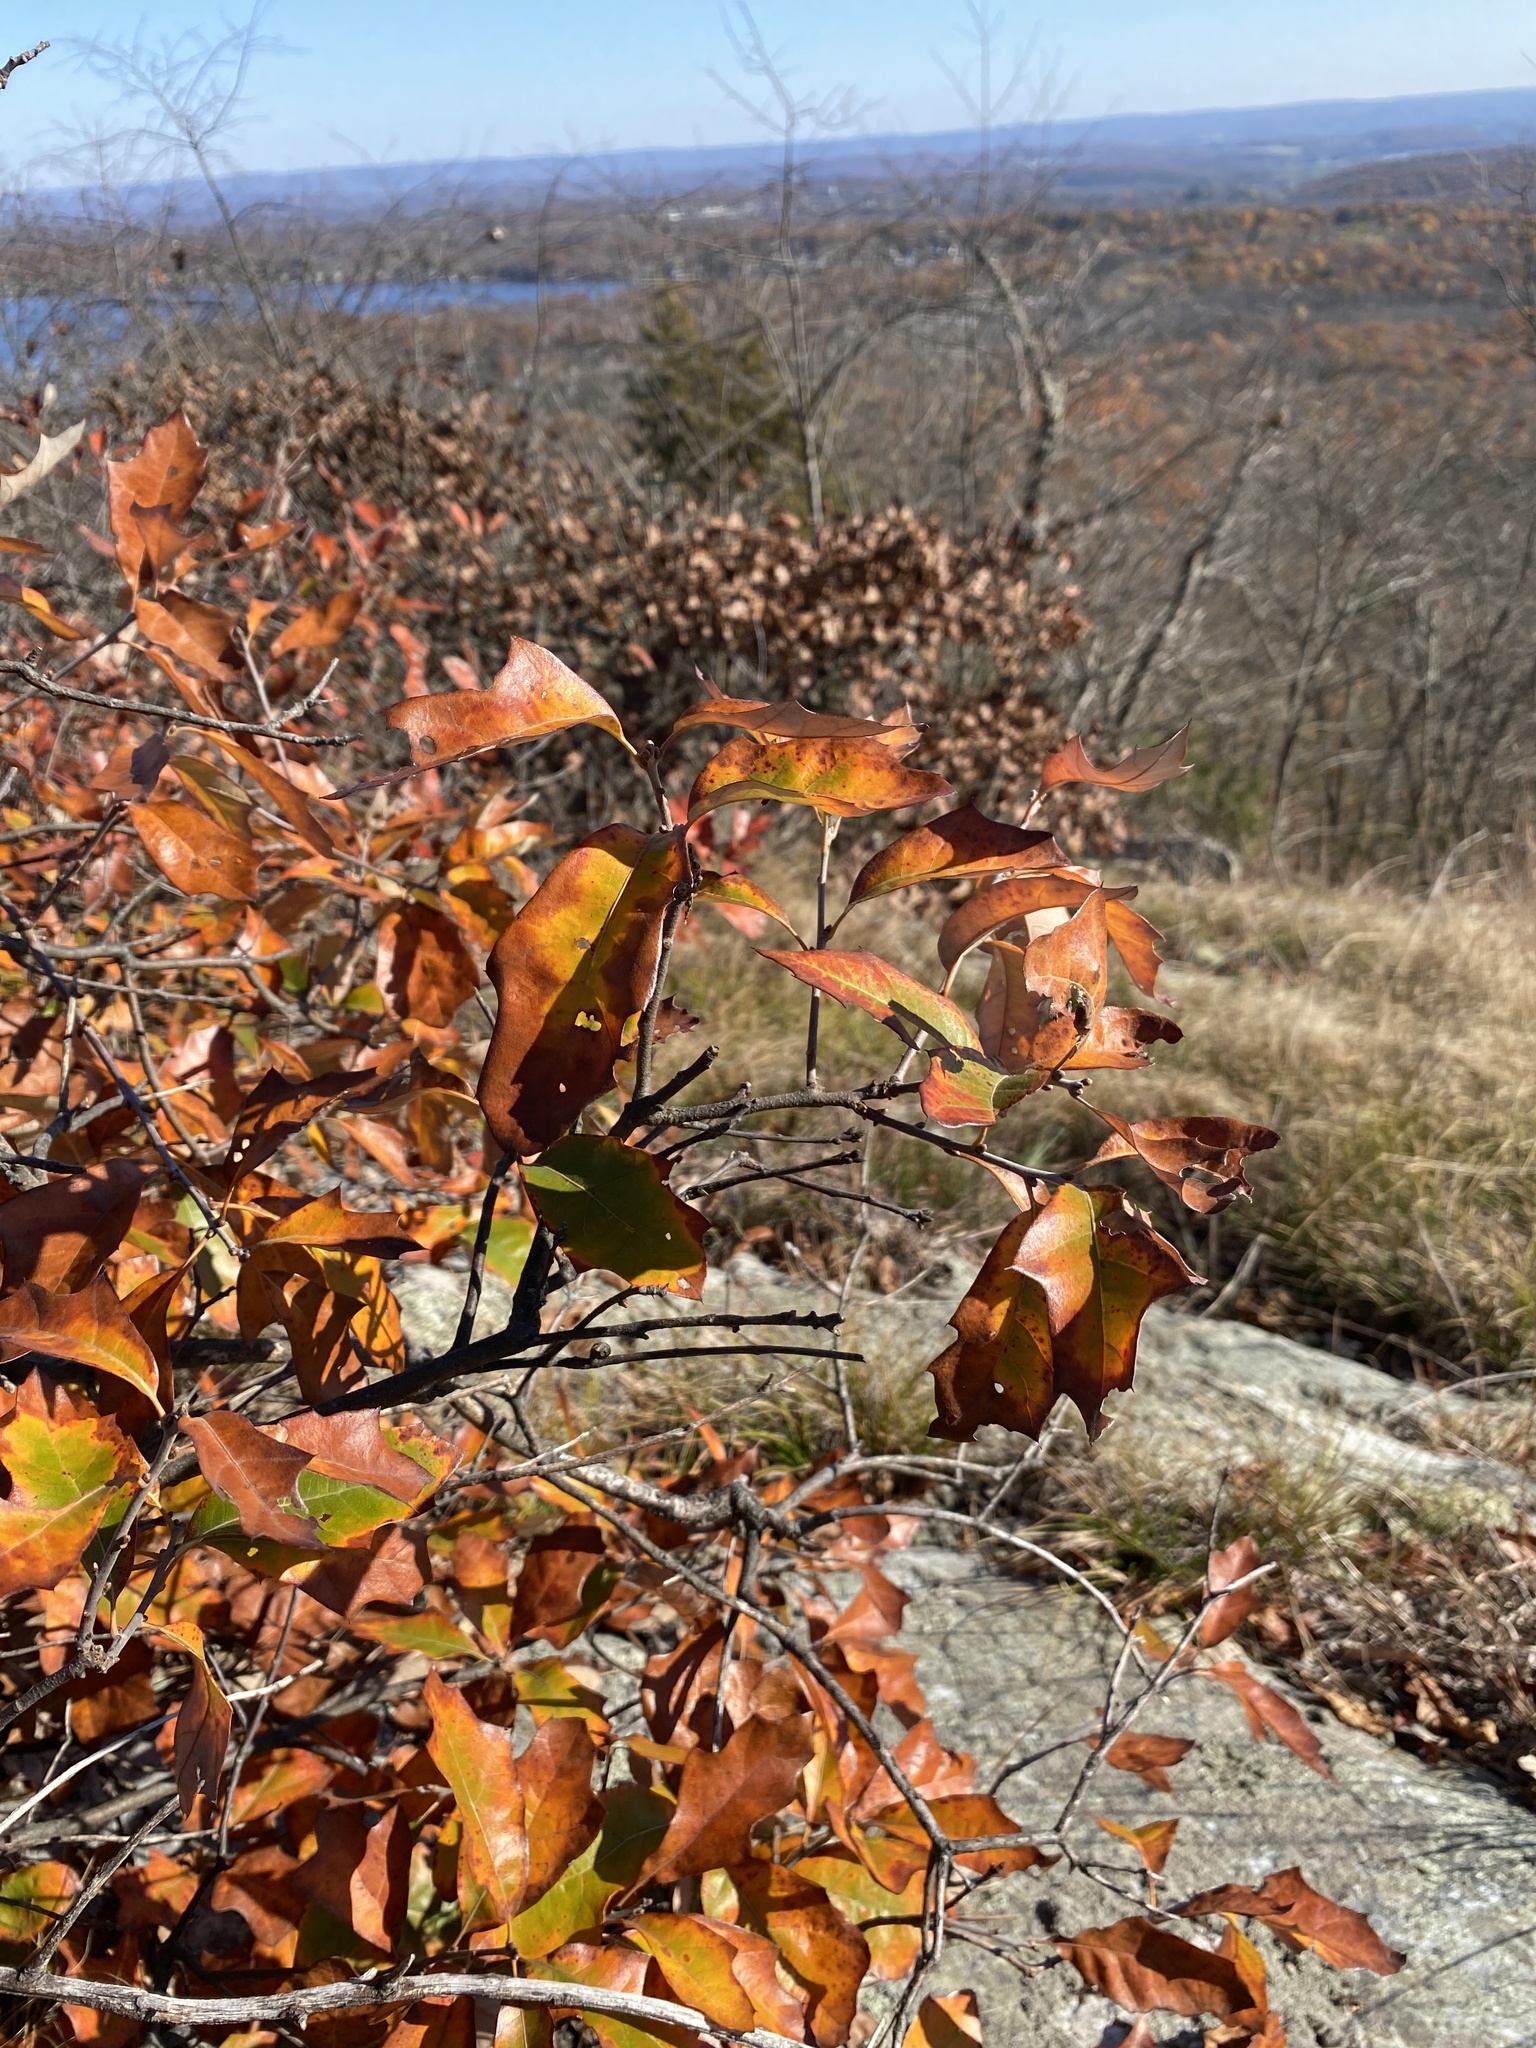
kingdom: Plantae
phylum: Tracheophyta
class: Magnoliopsida
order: Fagales
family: Fagaceae
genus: Quercus
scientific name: Quercus ilicifolia
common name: Bear oak
